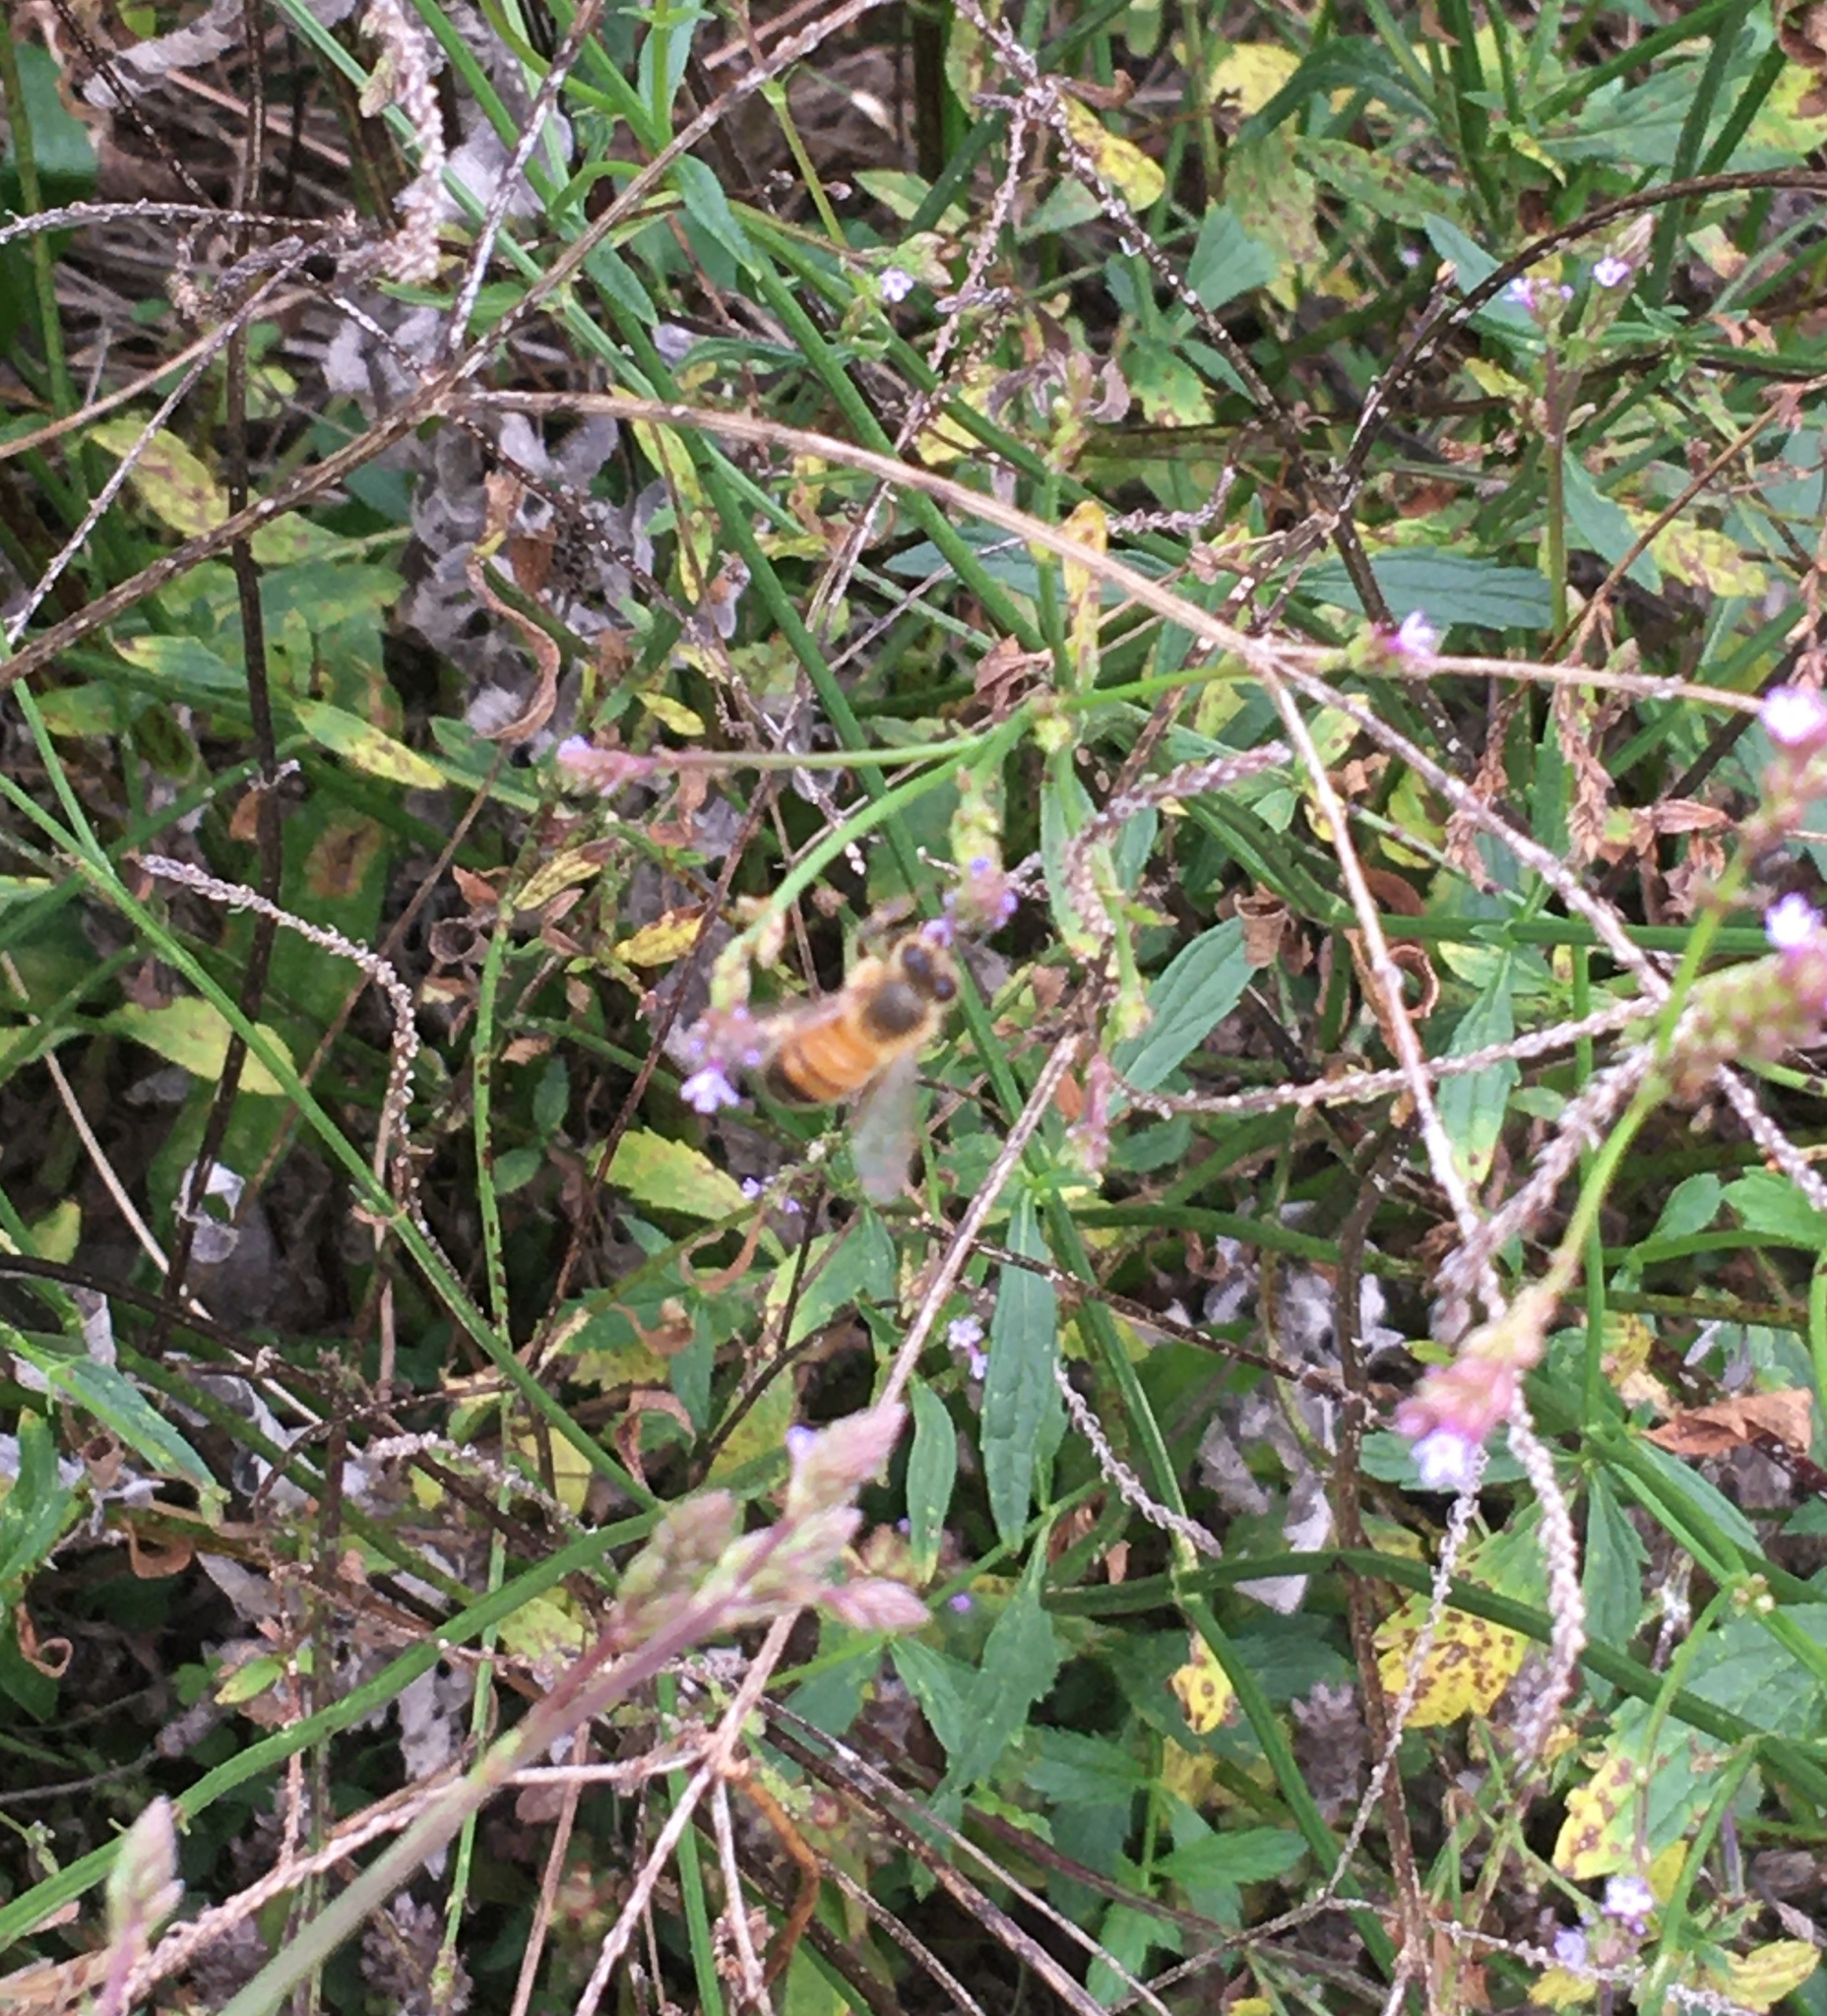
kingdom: Animalia
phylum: Arthropoda
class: Insecta
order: Hymenoptera
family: Apidae
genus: Apis
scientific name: Apis mellifera
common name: Honey bee
